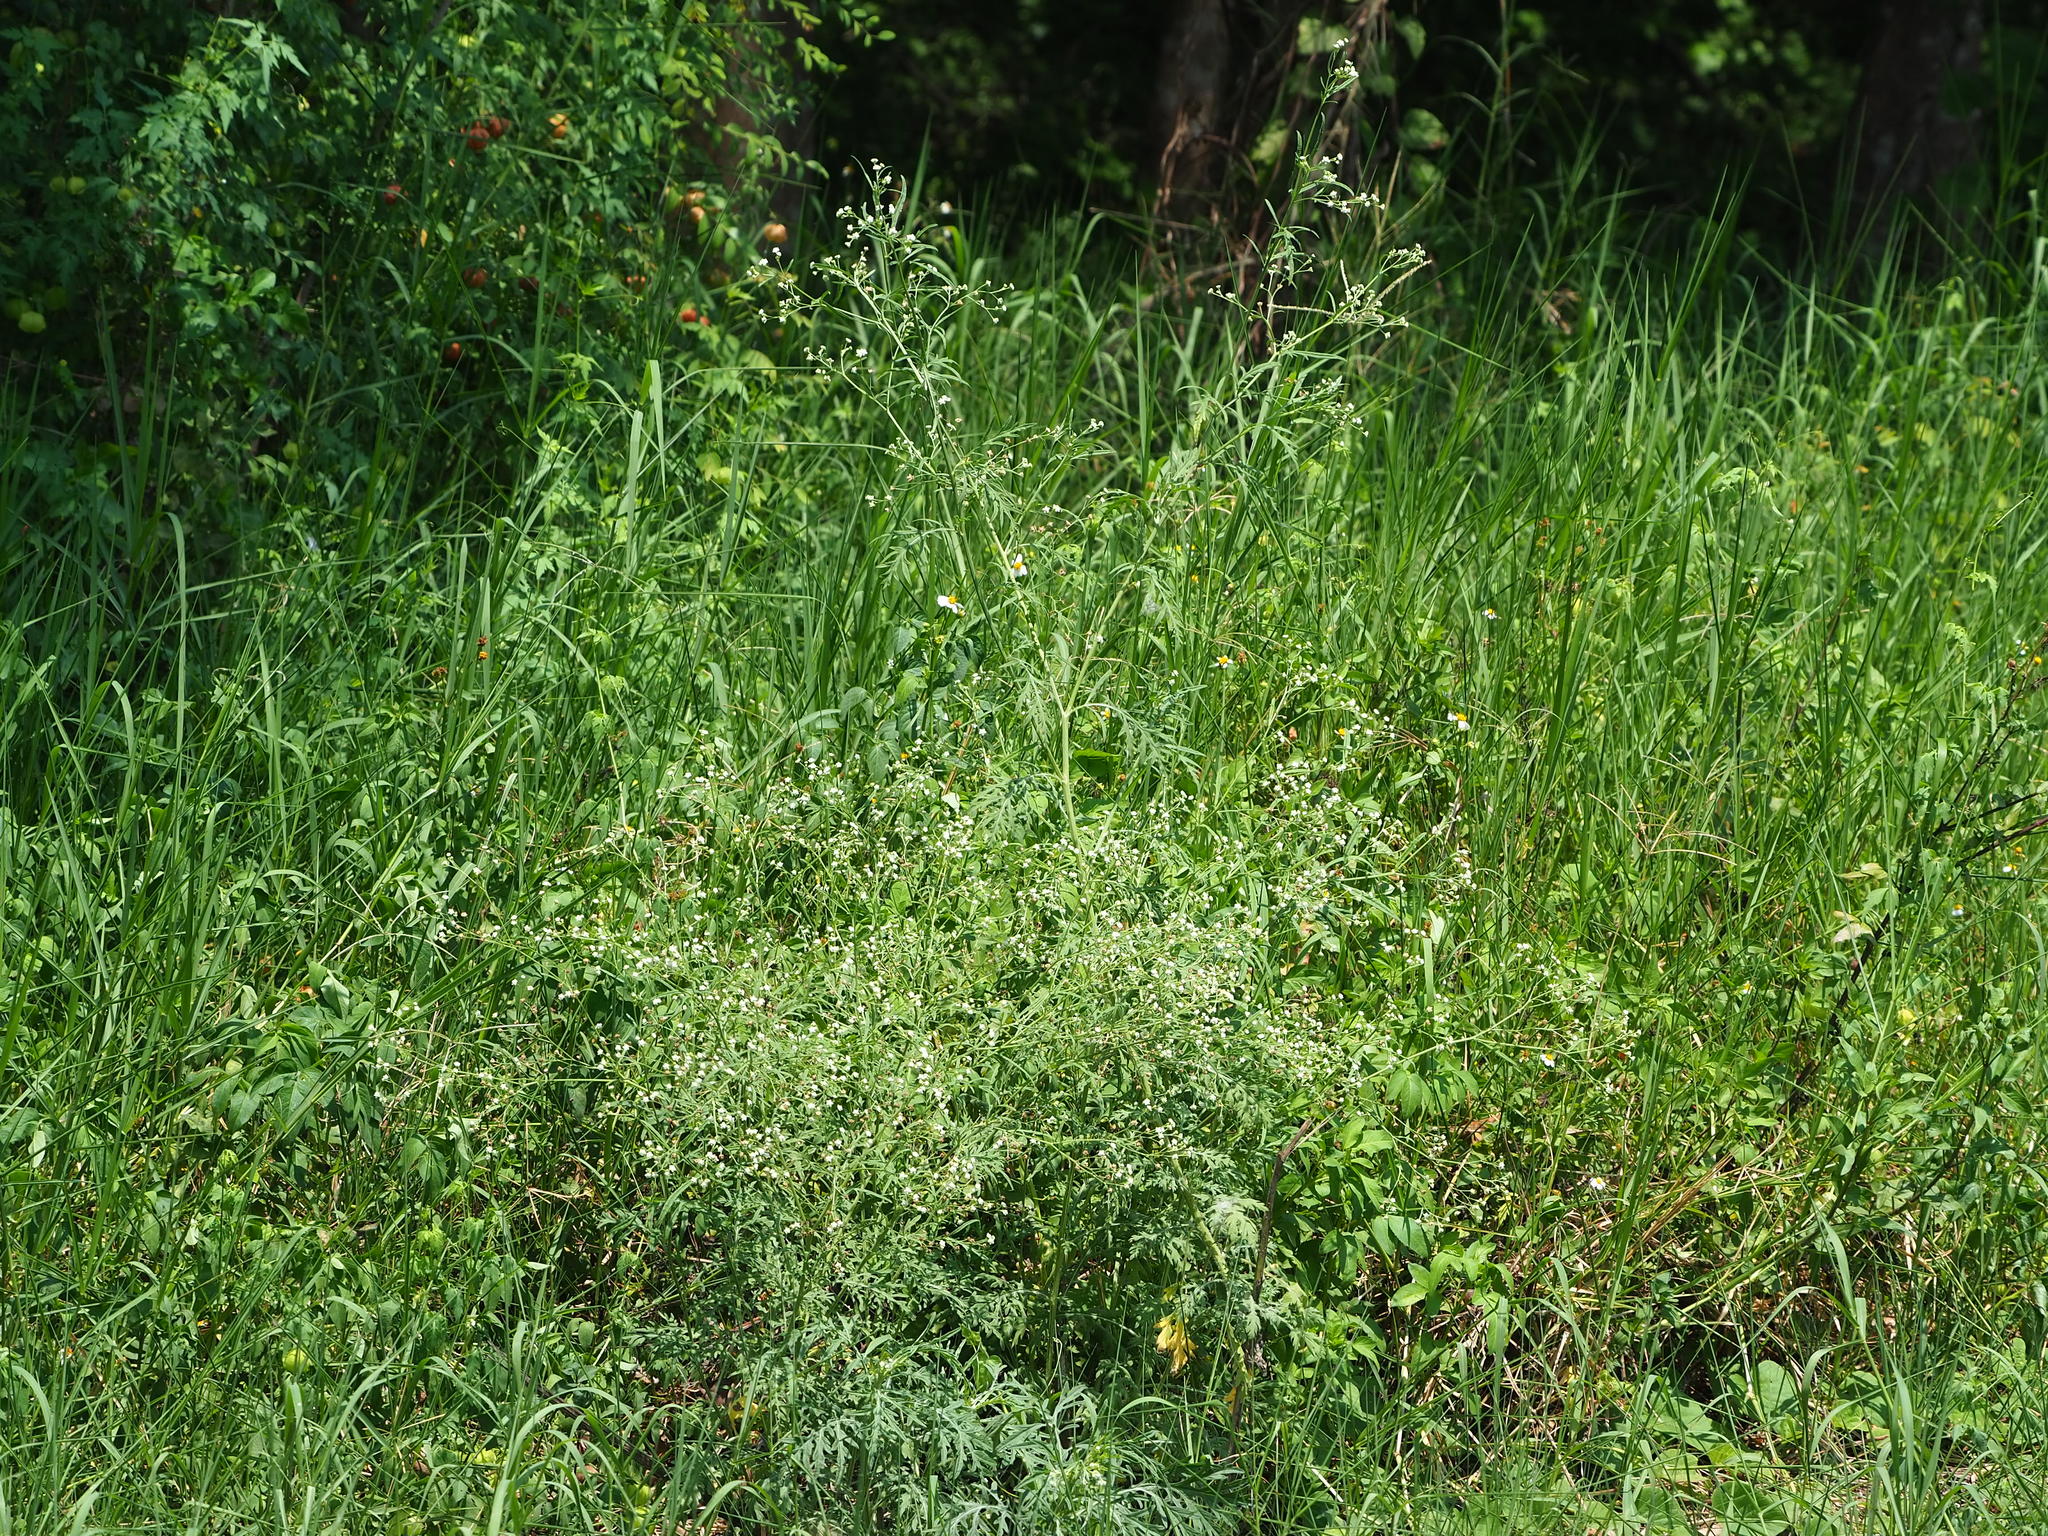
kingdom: Plantae
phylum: Tracheophyta
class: Magnoliopsida
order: Asterales
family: Asteraceae
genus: Parthenium
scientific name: Parthenium hysterophorus
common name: Santa maria feverfew
